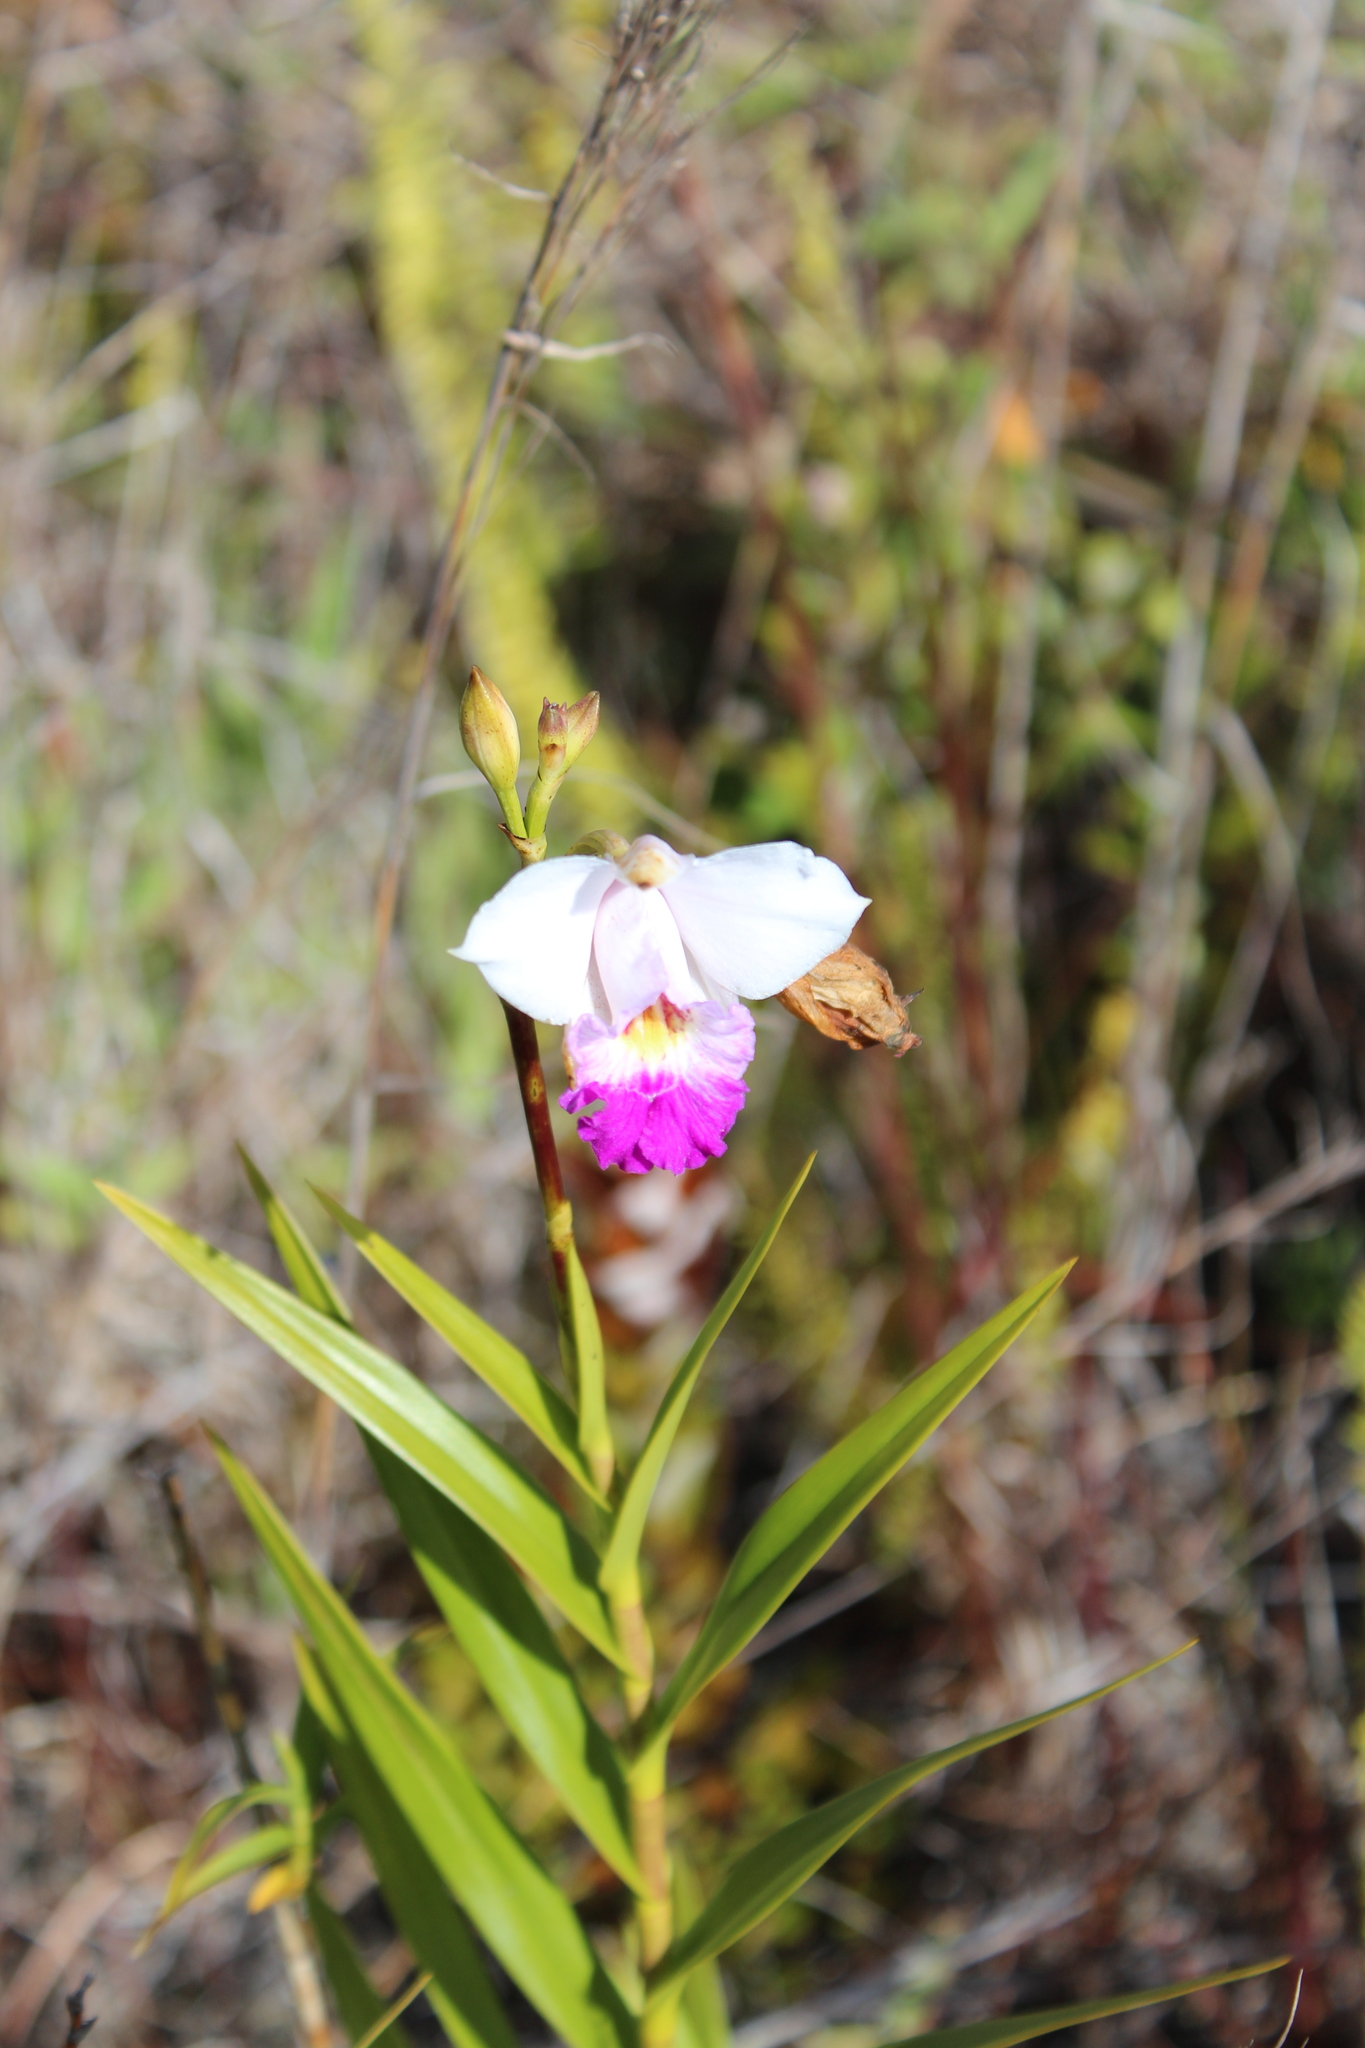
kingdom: Plantae
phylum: Tracheophyta
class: Liliopsida
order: Asparagales
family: Orchidaceae
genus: Arundina
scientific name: Arundina graminifolia
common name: Bamboo orchid
